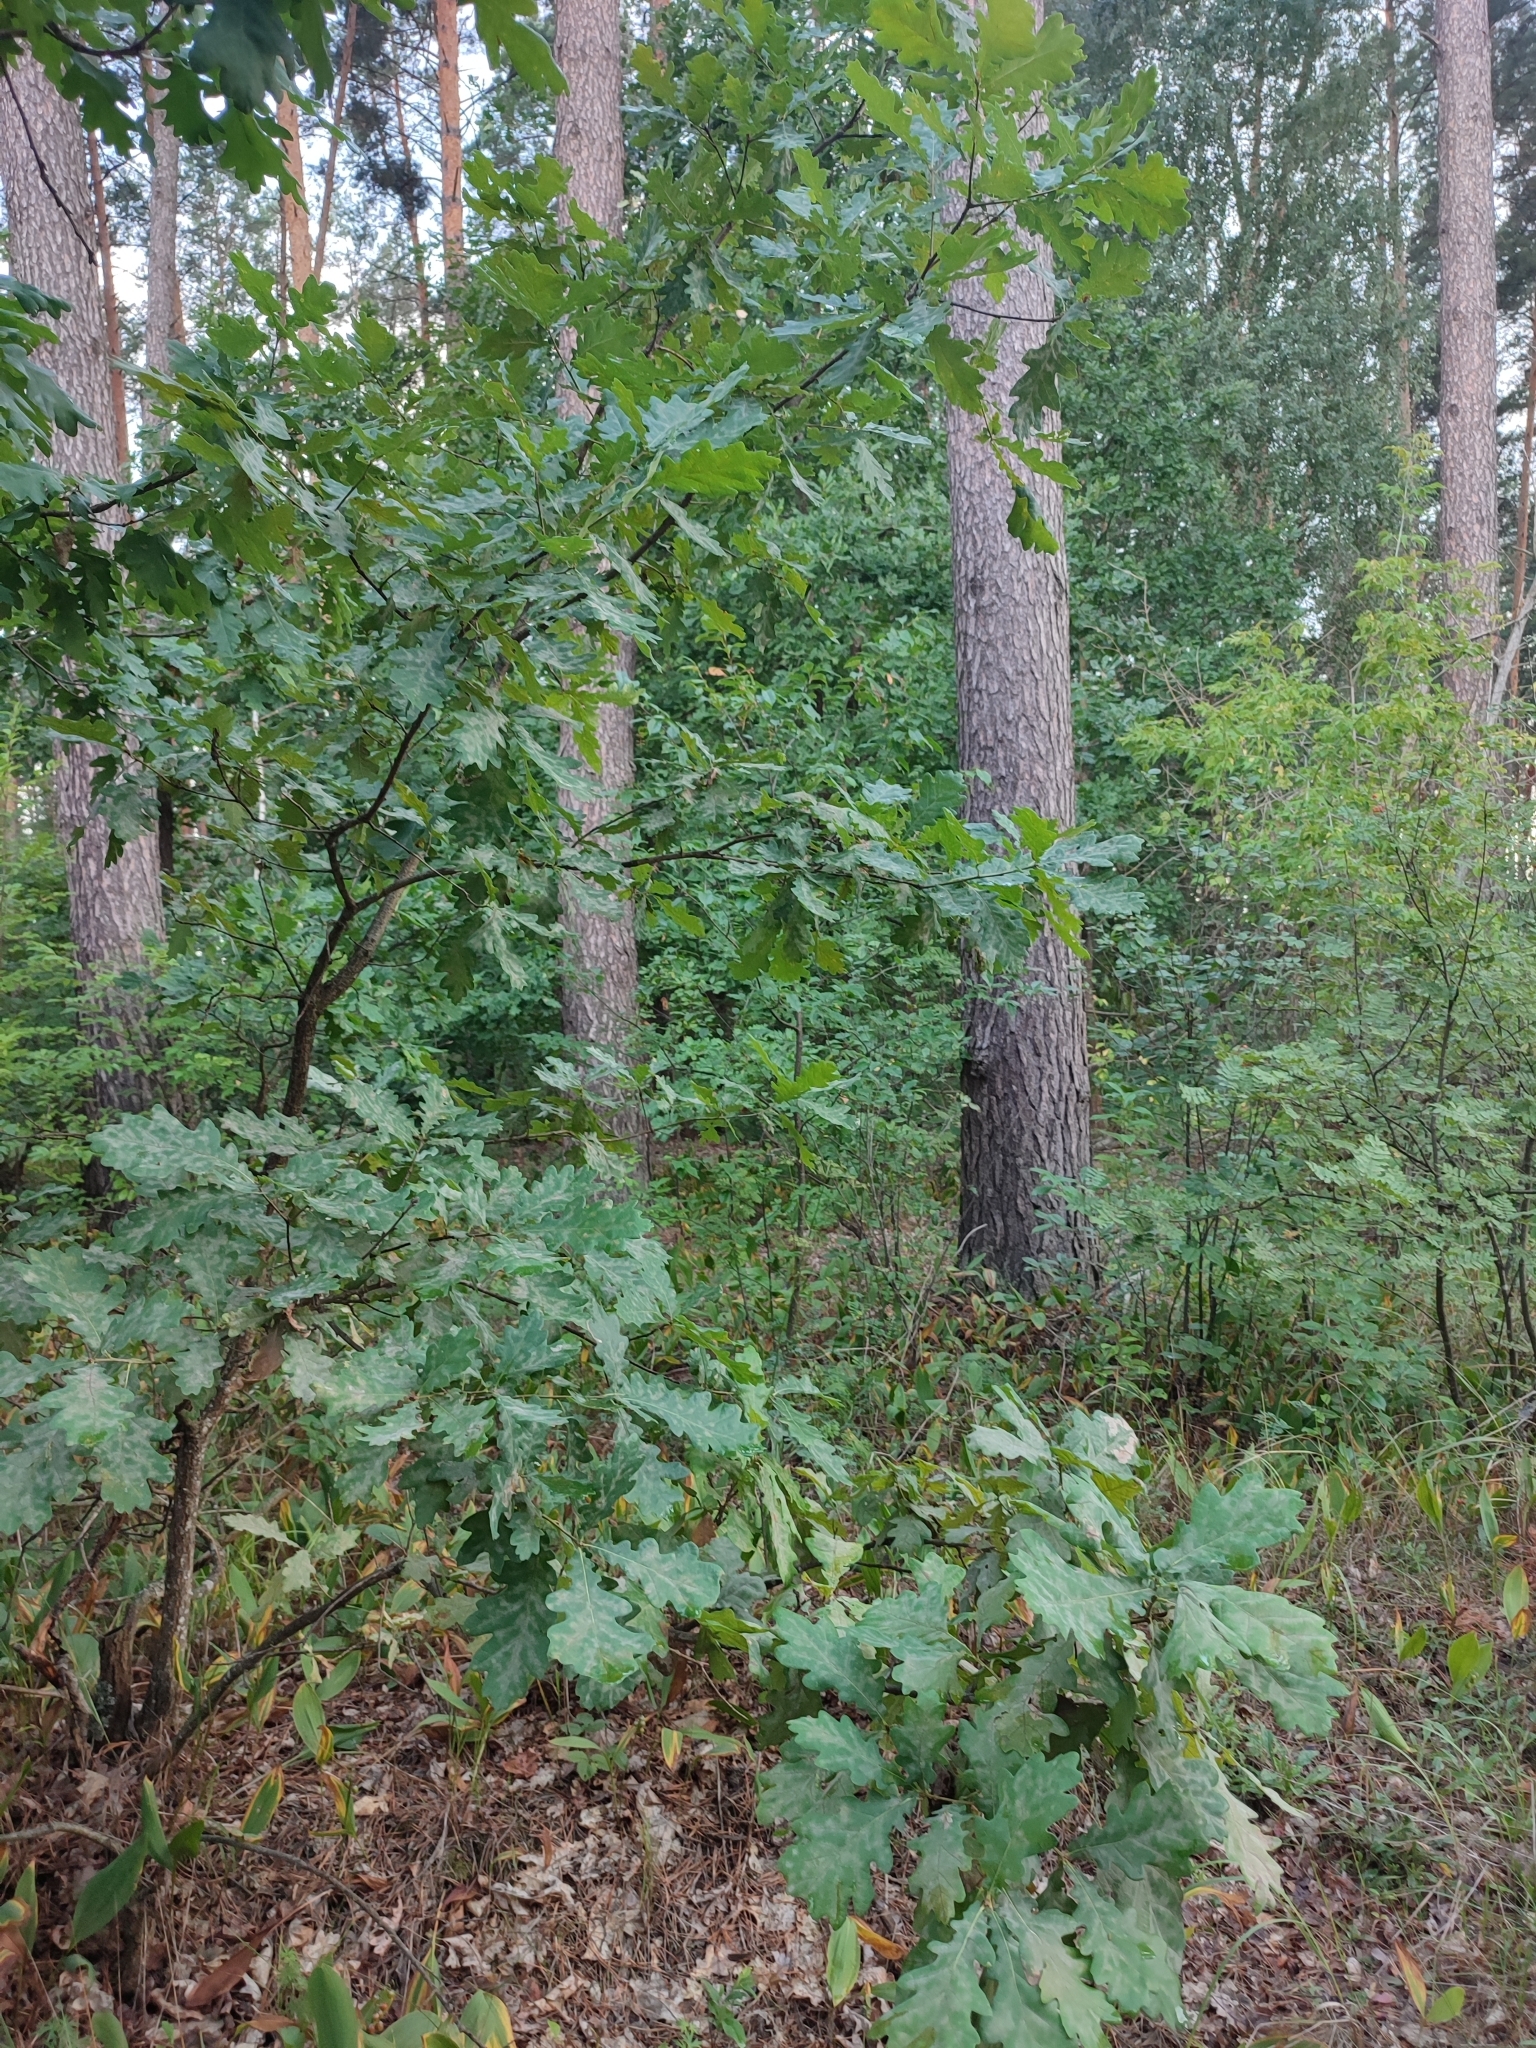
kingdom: Plantae
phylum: Tracheophyta
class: Magnoliopsida
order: Fagales
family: Fagaceae
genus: Quercus
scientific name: Quercus robur
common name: Pedunculate oak
